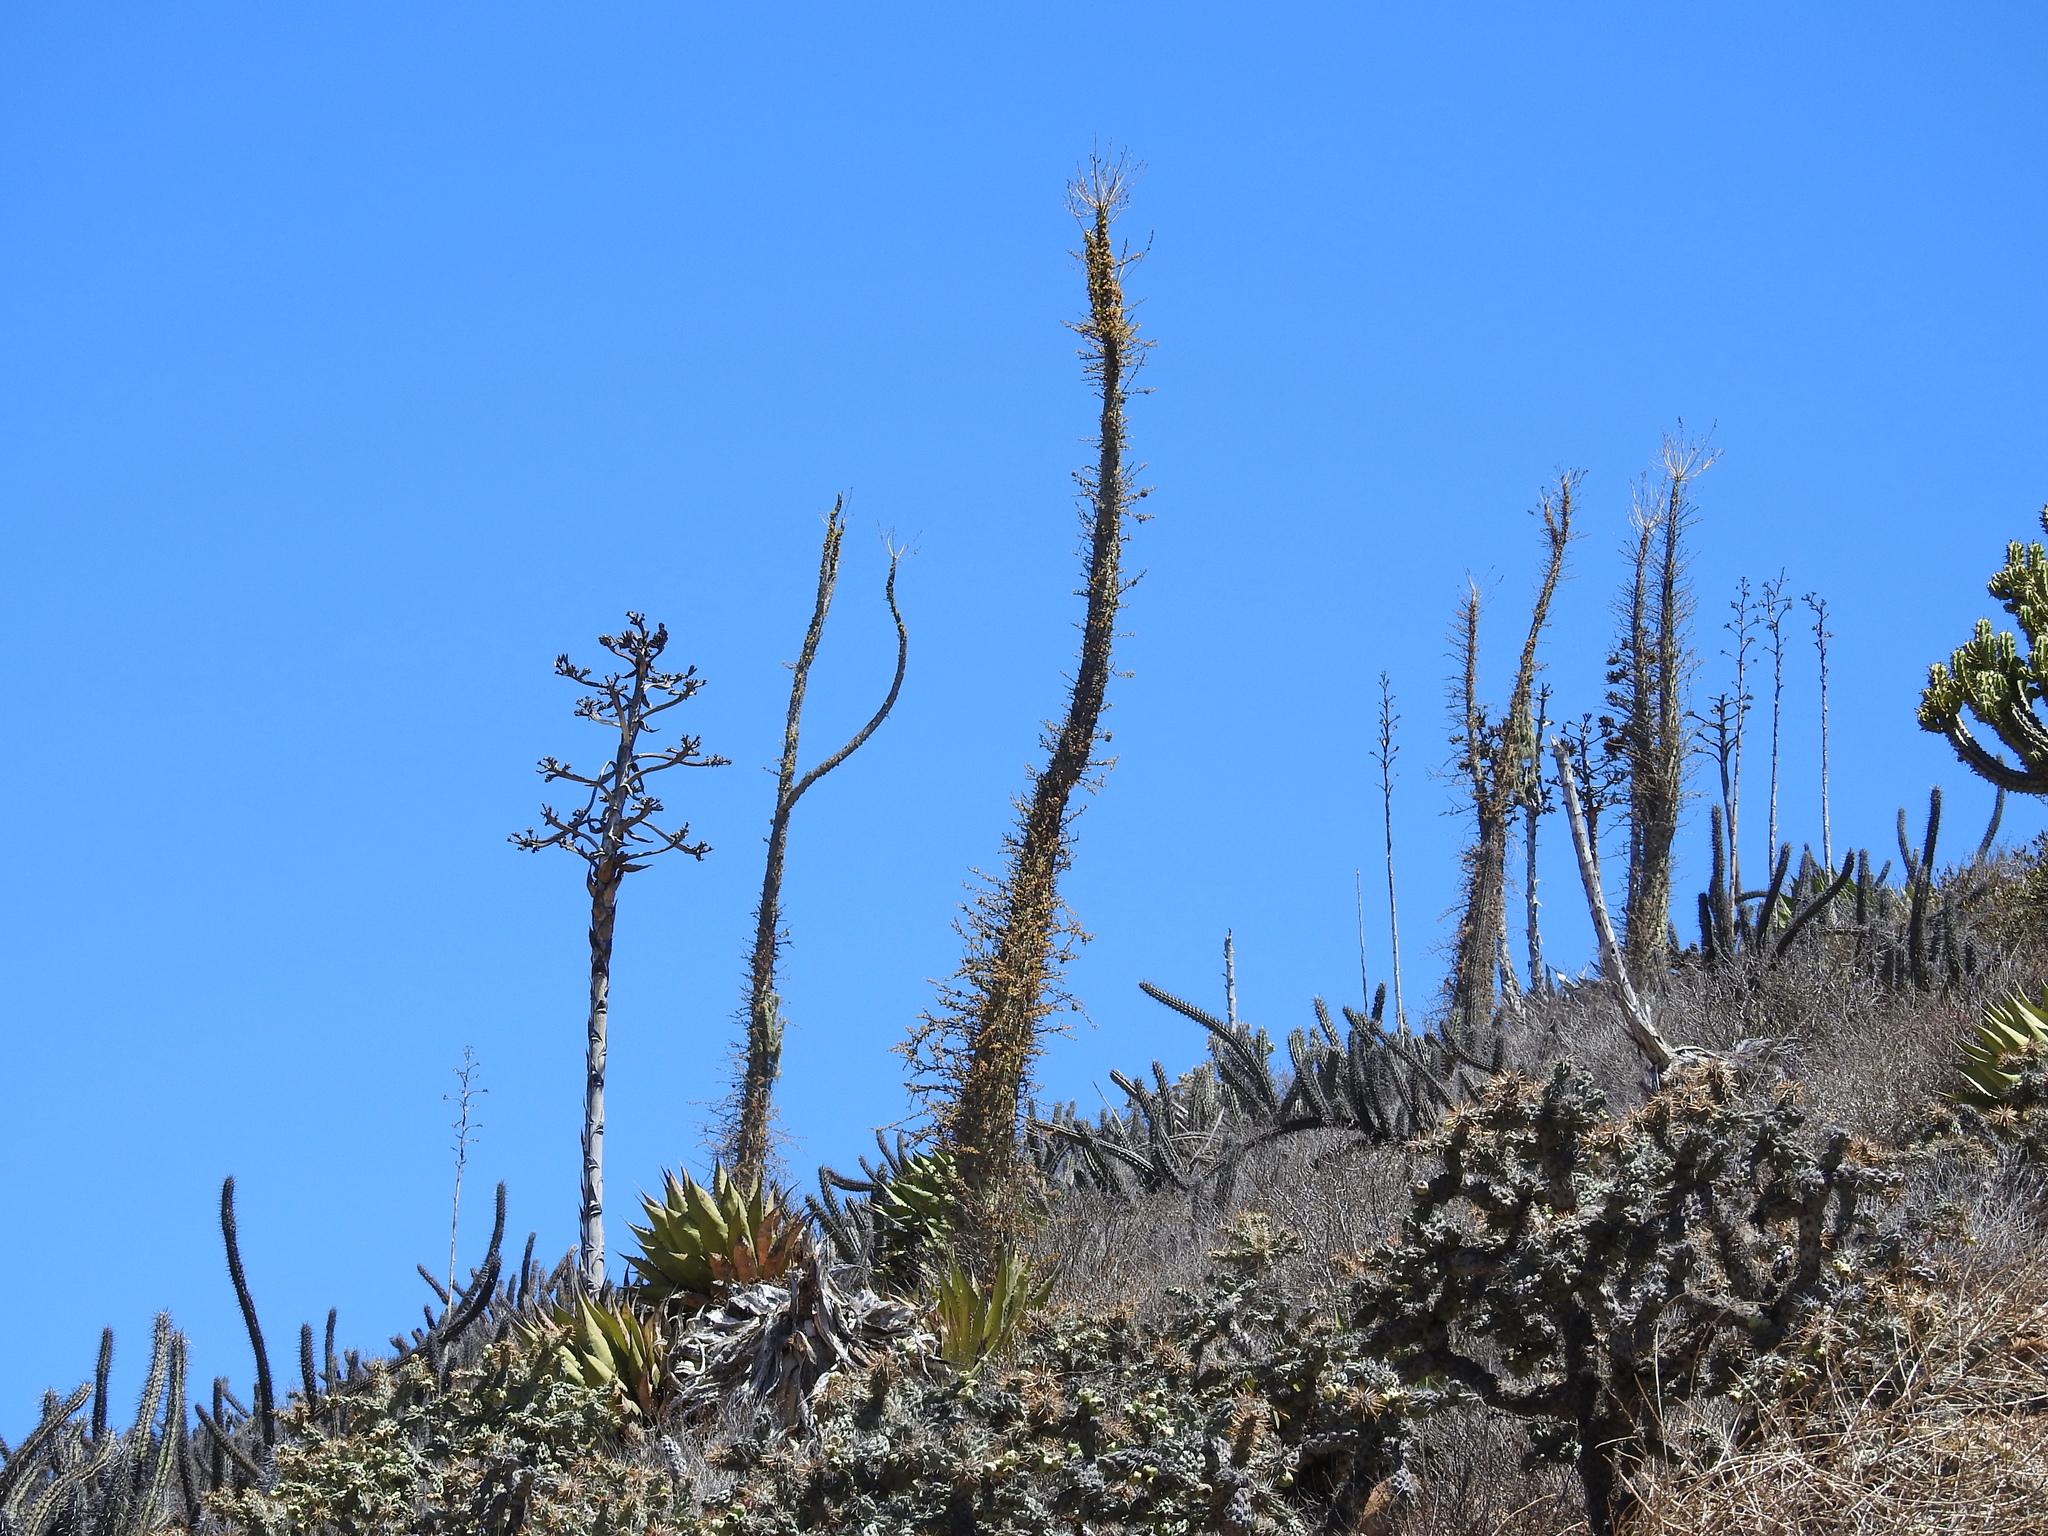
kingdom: Plantae
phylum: Tracheophyta
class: Magnoliopsida
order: Ericales
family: Fouquieriaceae
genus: Fouquieria
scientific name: Fouquieria columnaris
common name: Boojumtree
